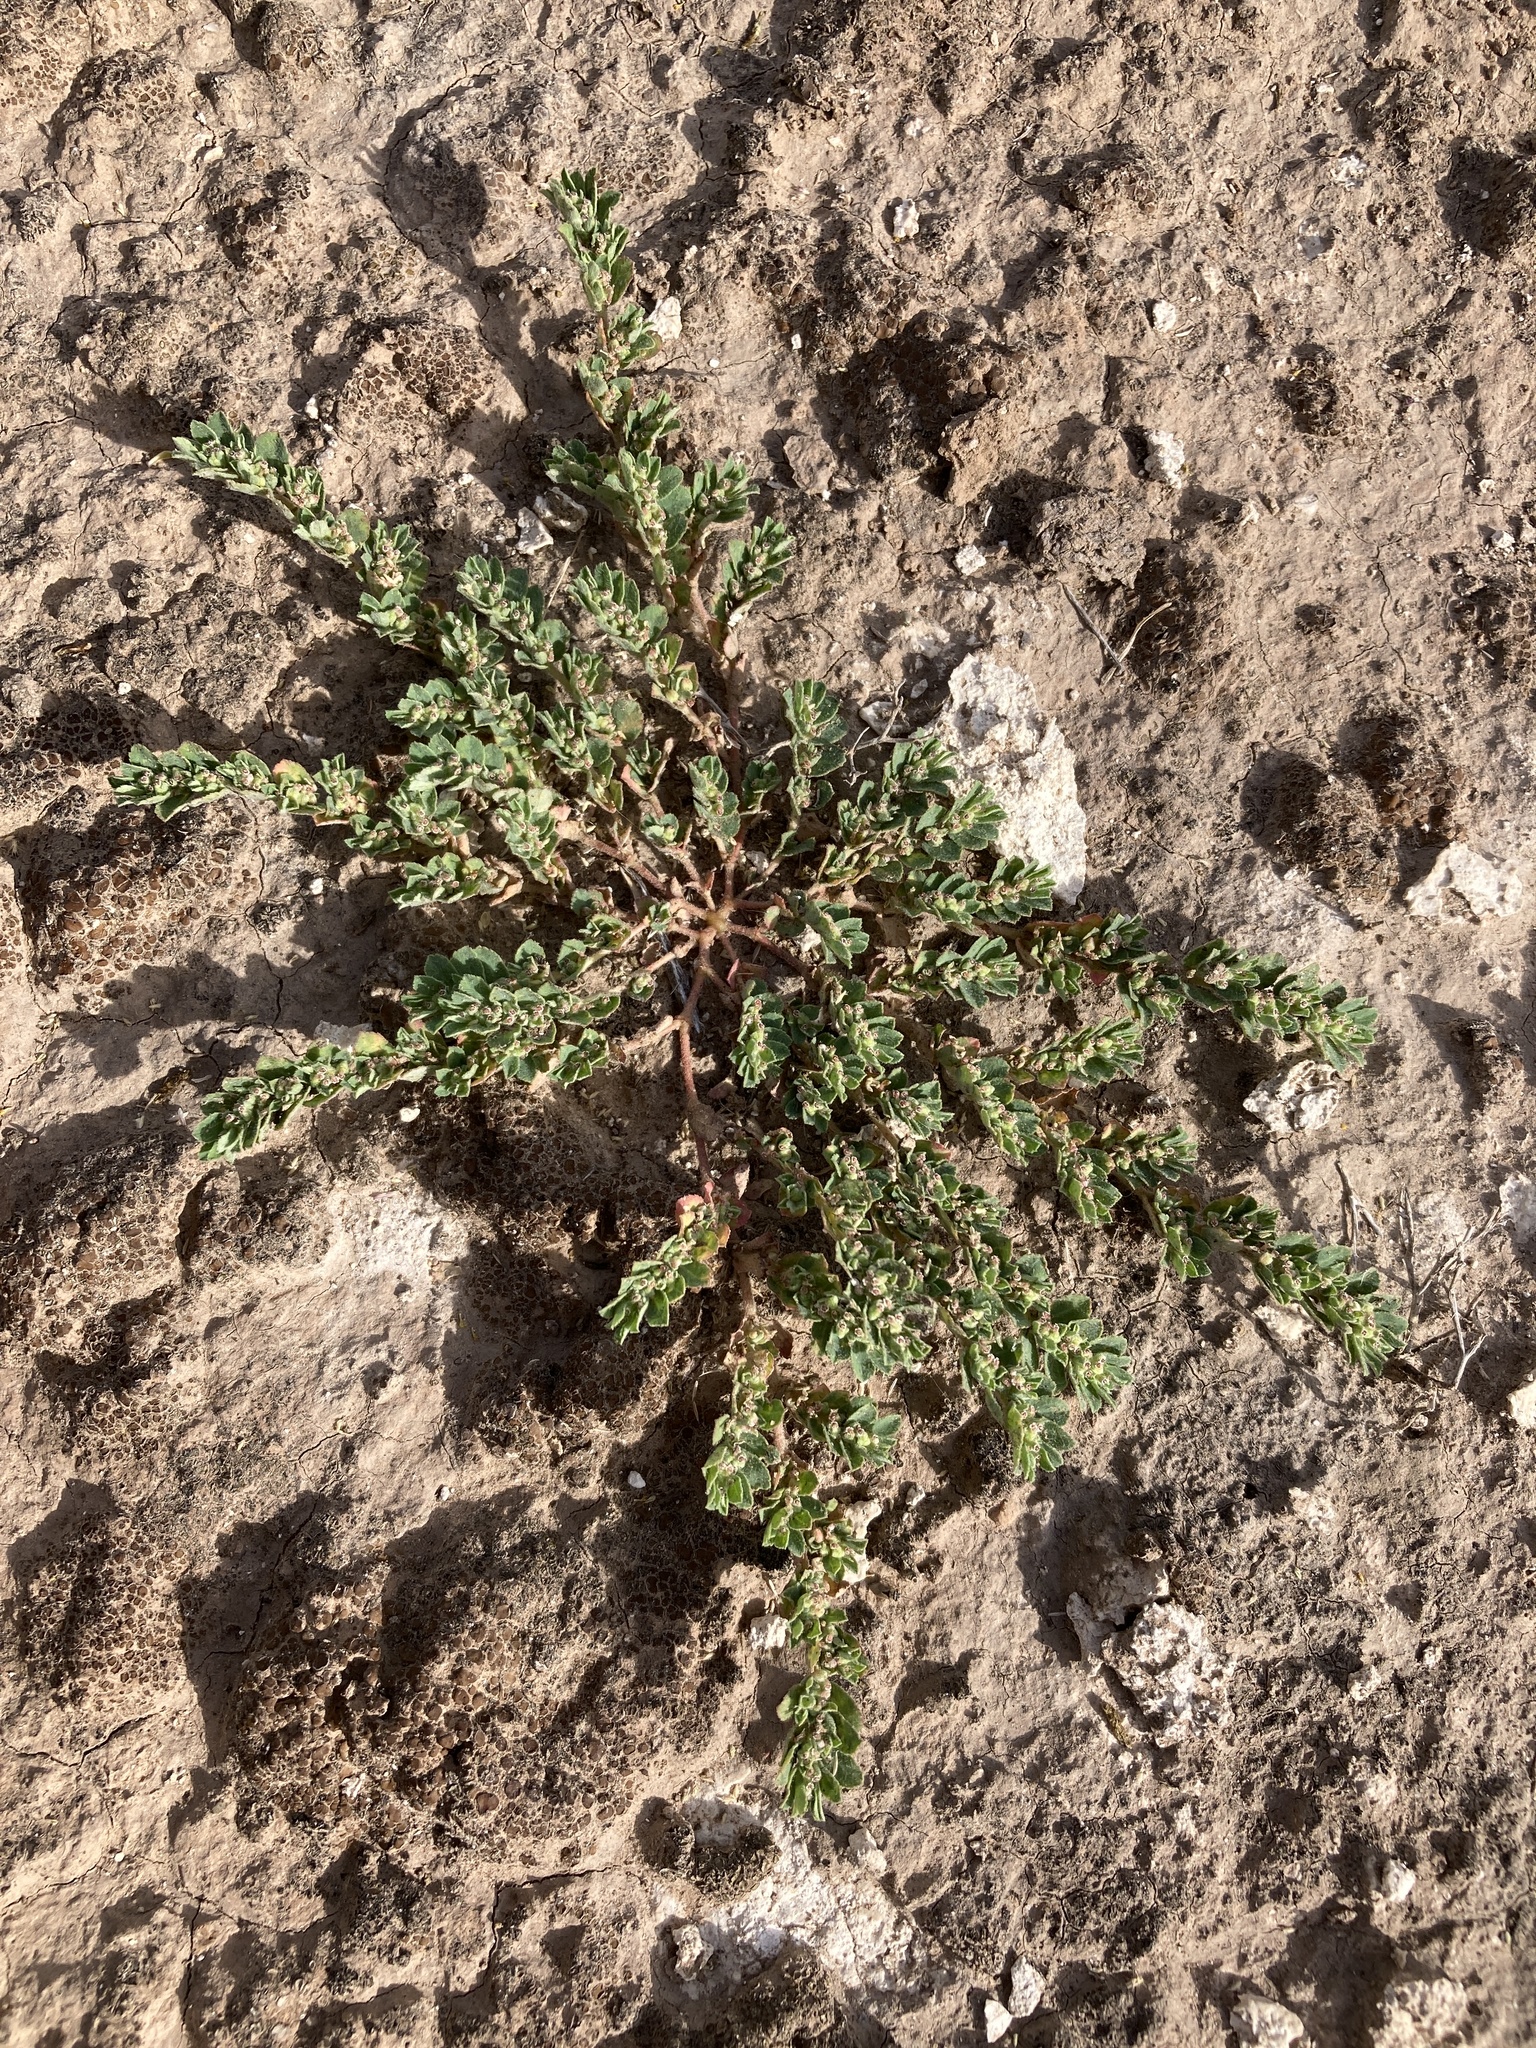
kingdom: Plantae
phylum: Tracheophyta
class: Magnoliopsida
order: Malpighiales
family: Euphorbiaceae
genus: Euphorbia
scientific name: Euphorbia stictospora
